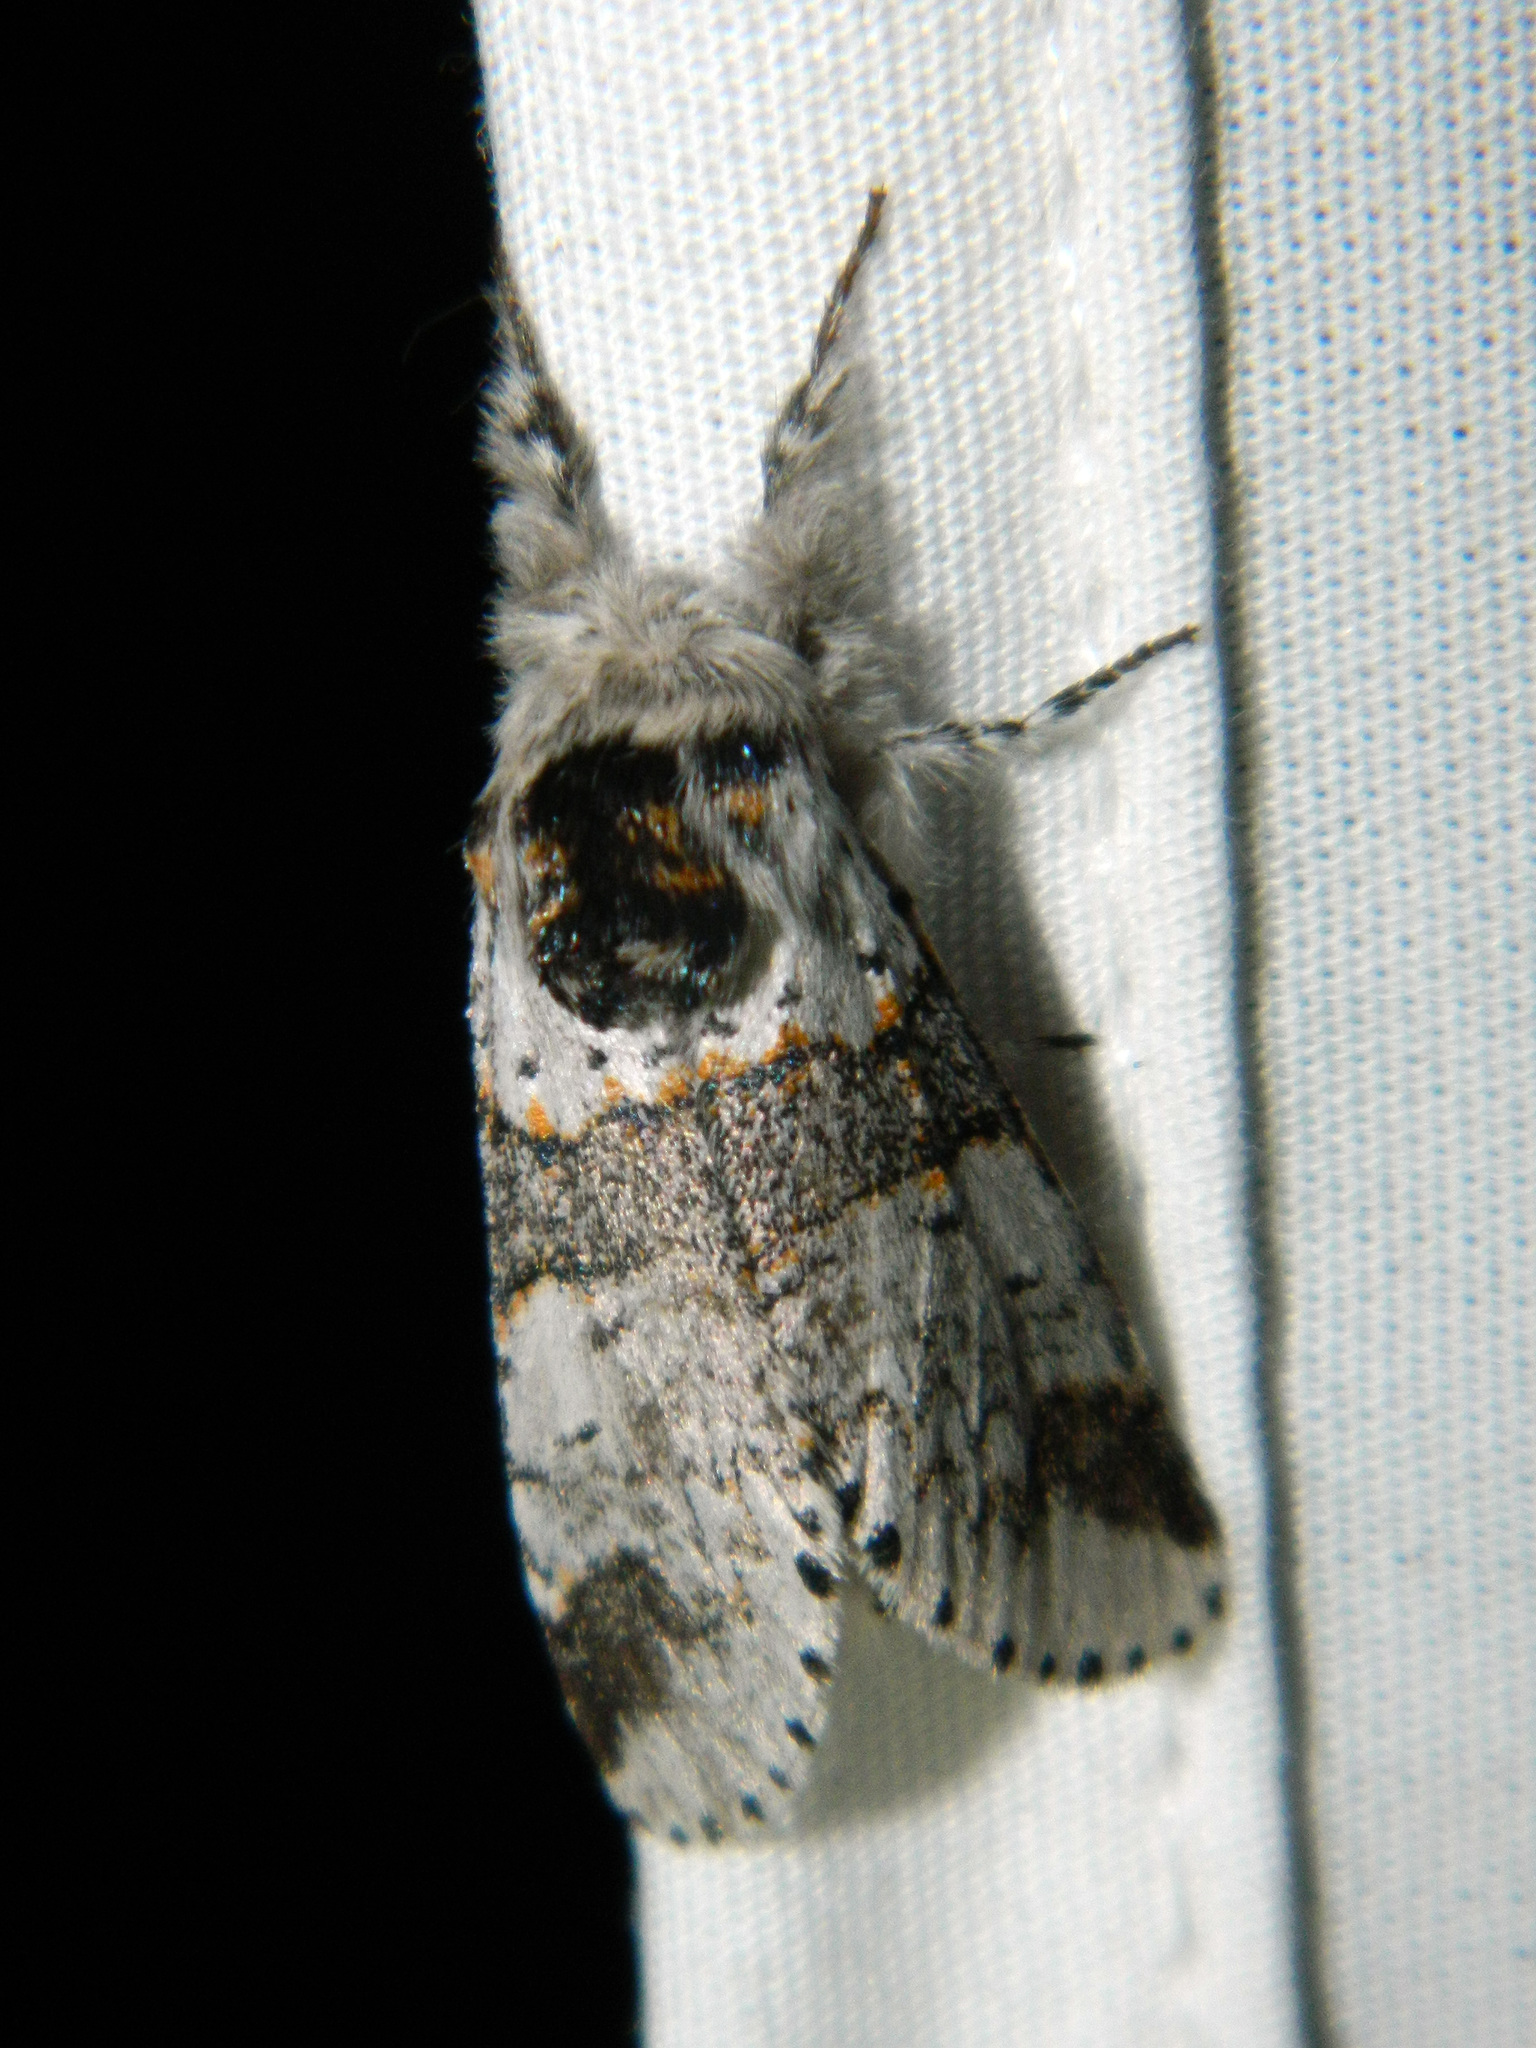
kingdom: Animalia
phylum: Arthropoda
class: Insecta
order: Lepidoptera
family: Notodontidae
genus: Furcula
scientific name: Furcula occidentalis
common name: Western furcula moth
